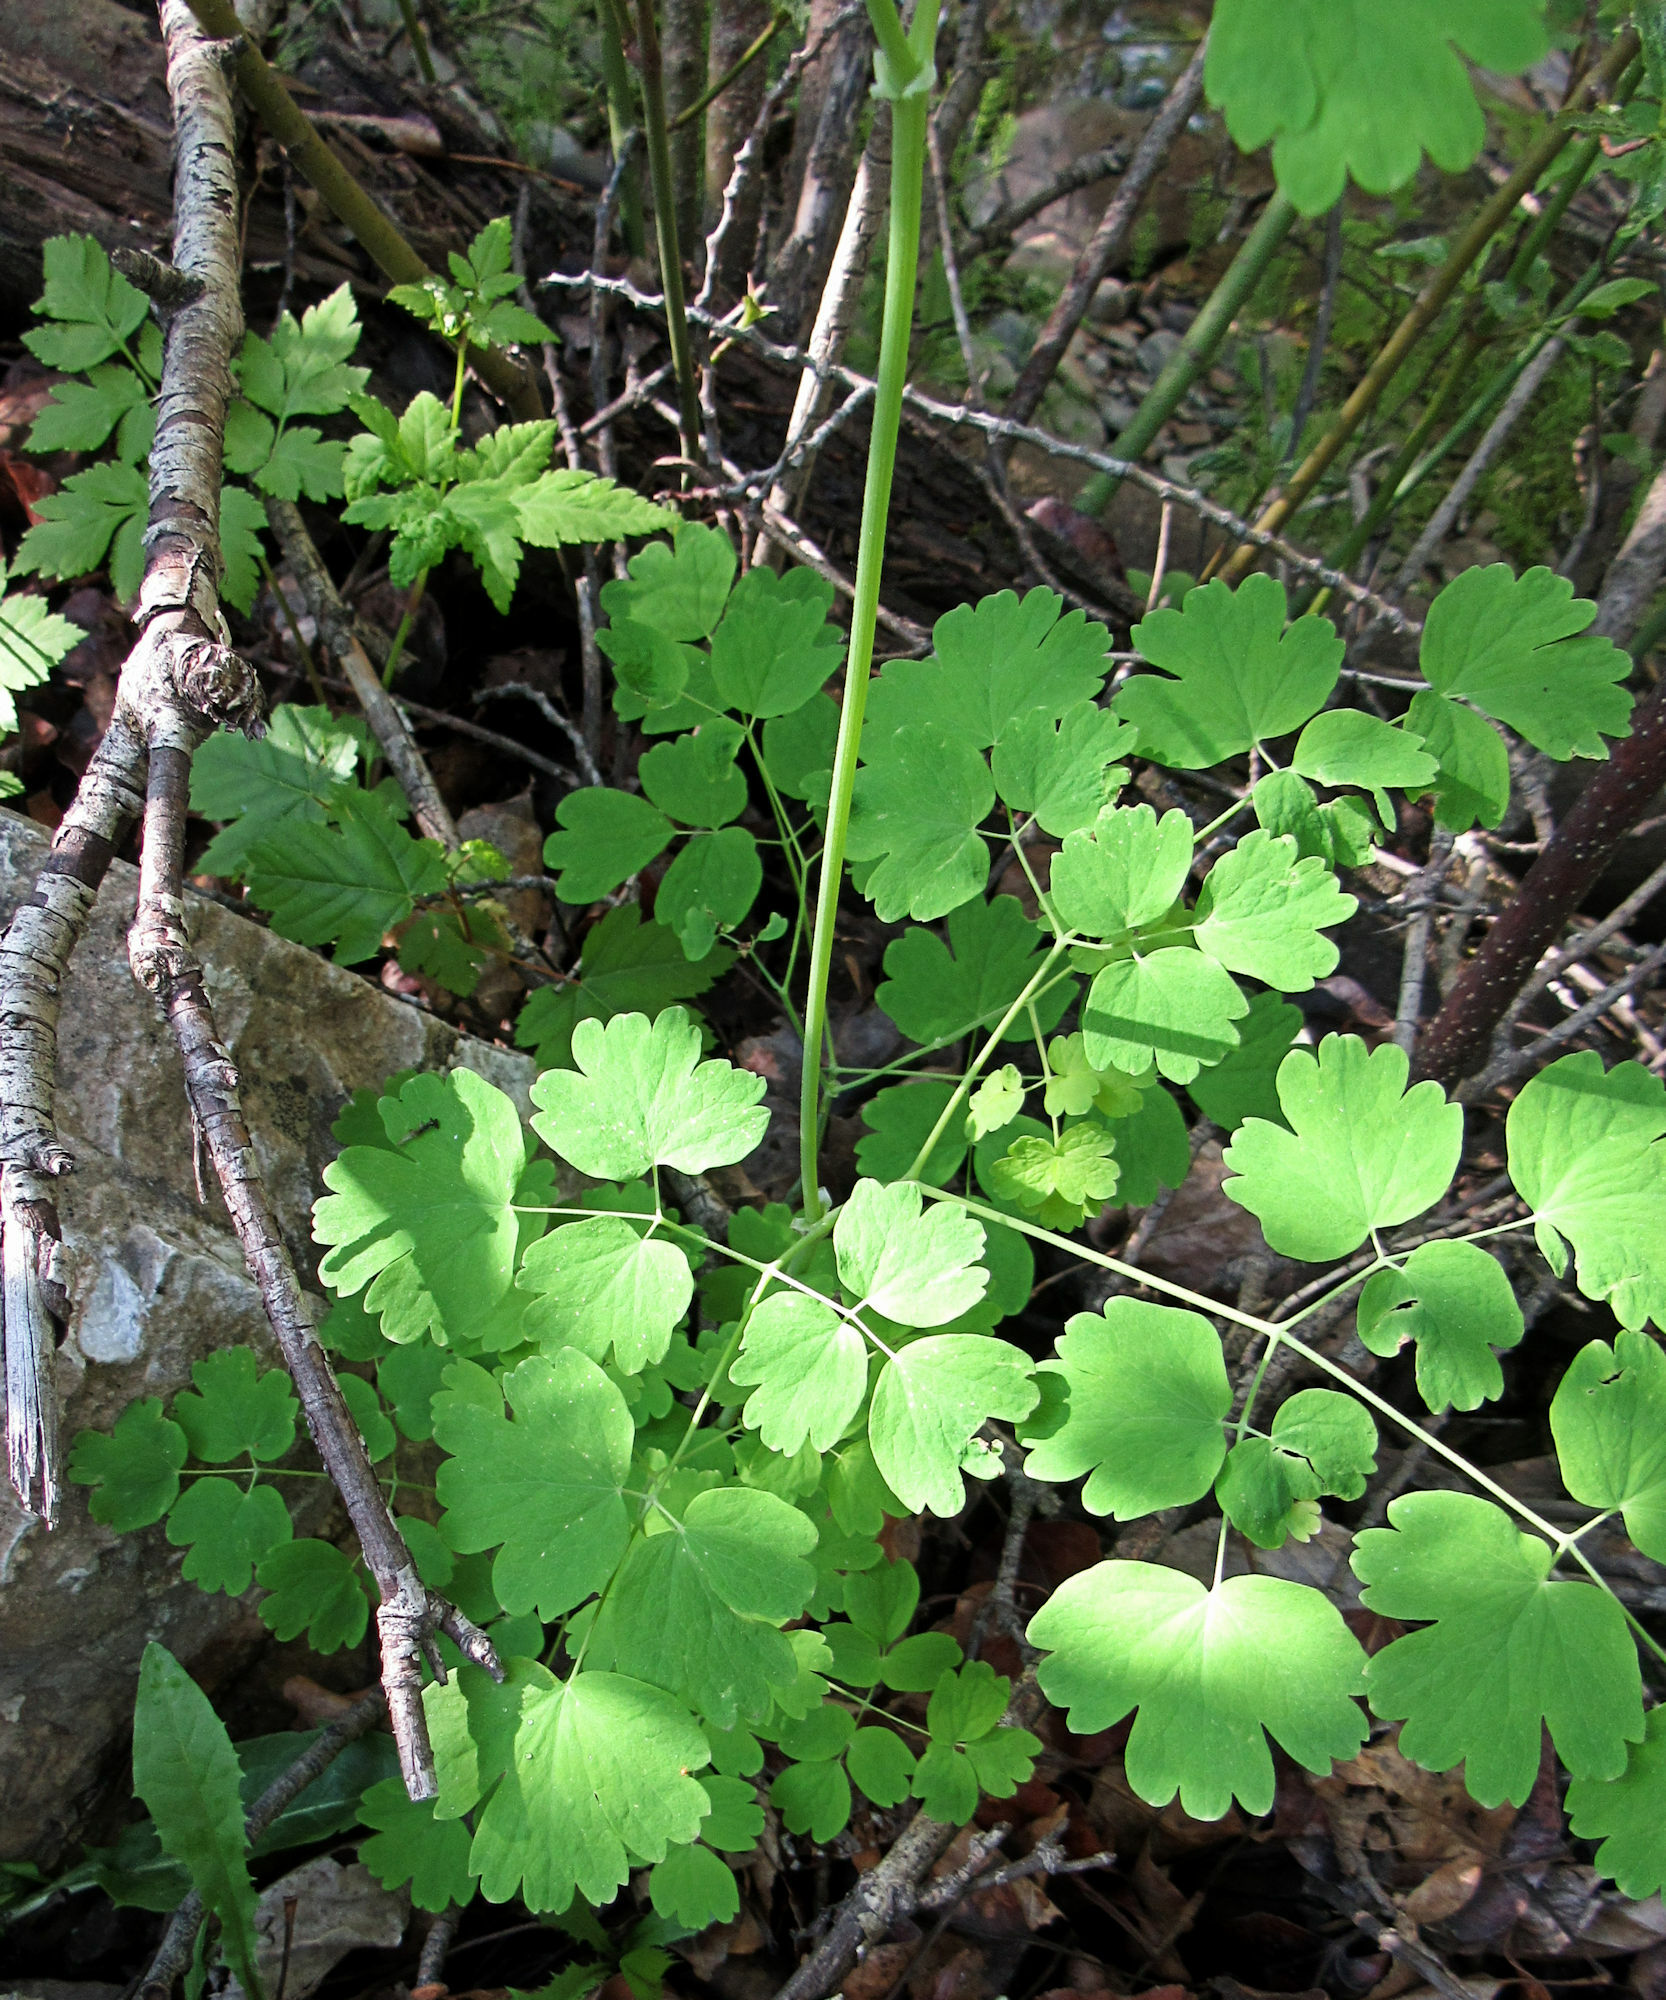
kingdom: Plantae
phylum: Tracheophyta
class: Magnoliopsida
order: Ranunculales
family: Ranunculaceae
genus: Thalictrum
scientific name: Thalictrum occidentale
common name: Western meadow-rue
